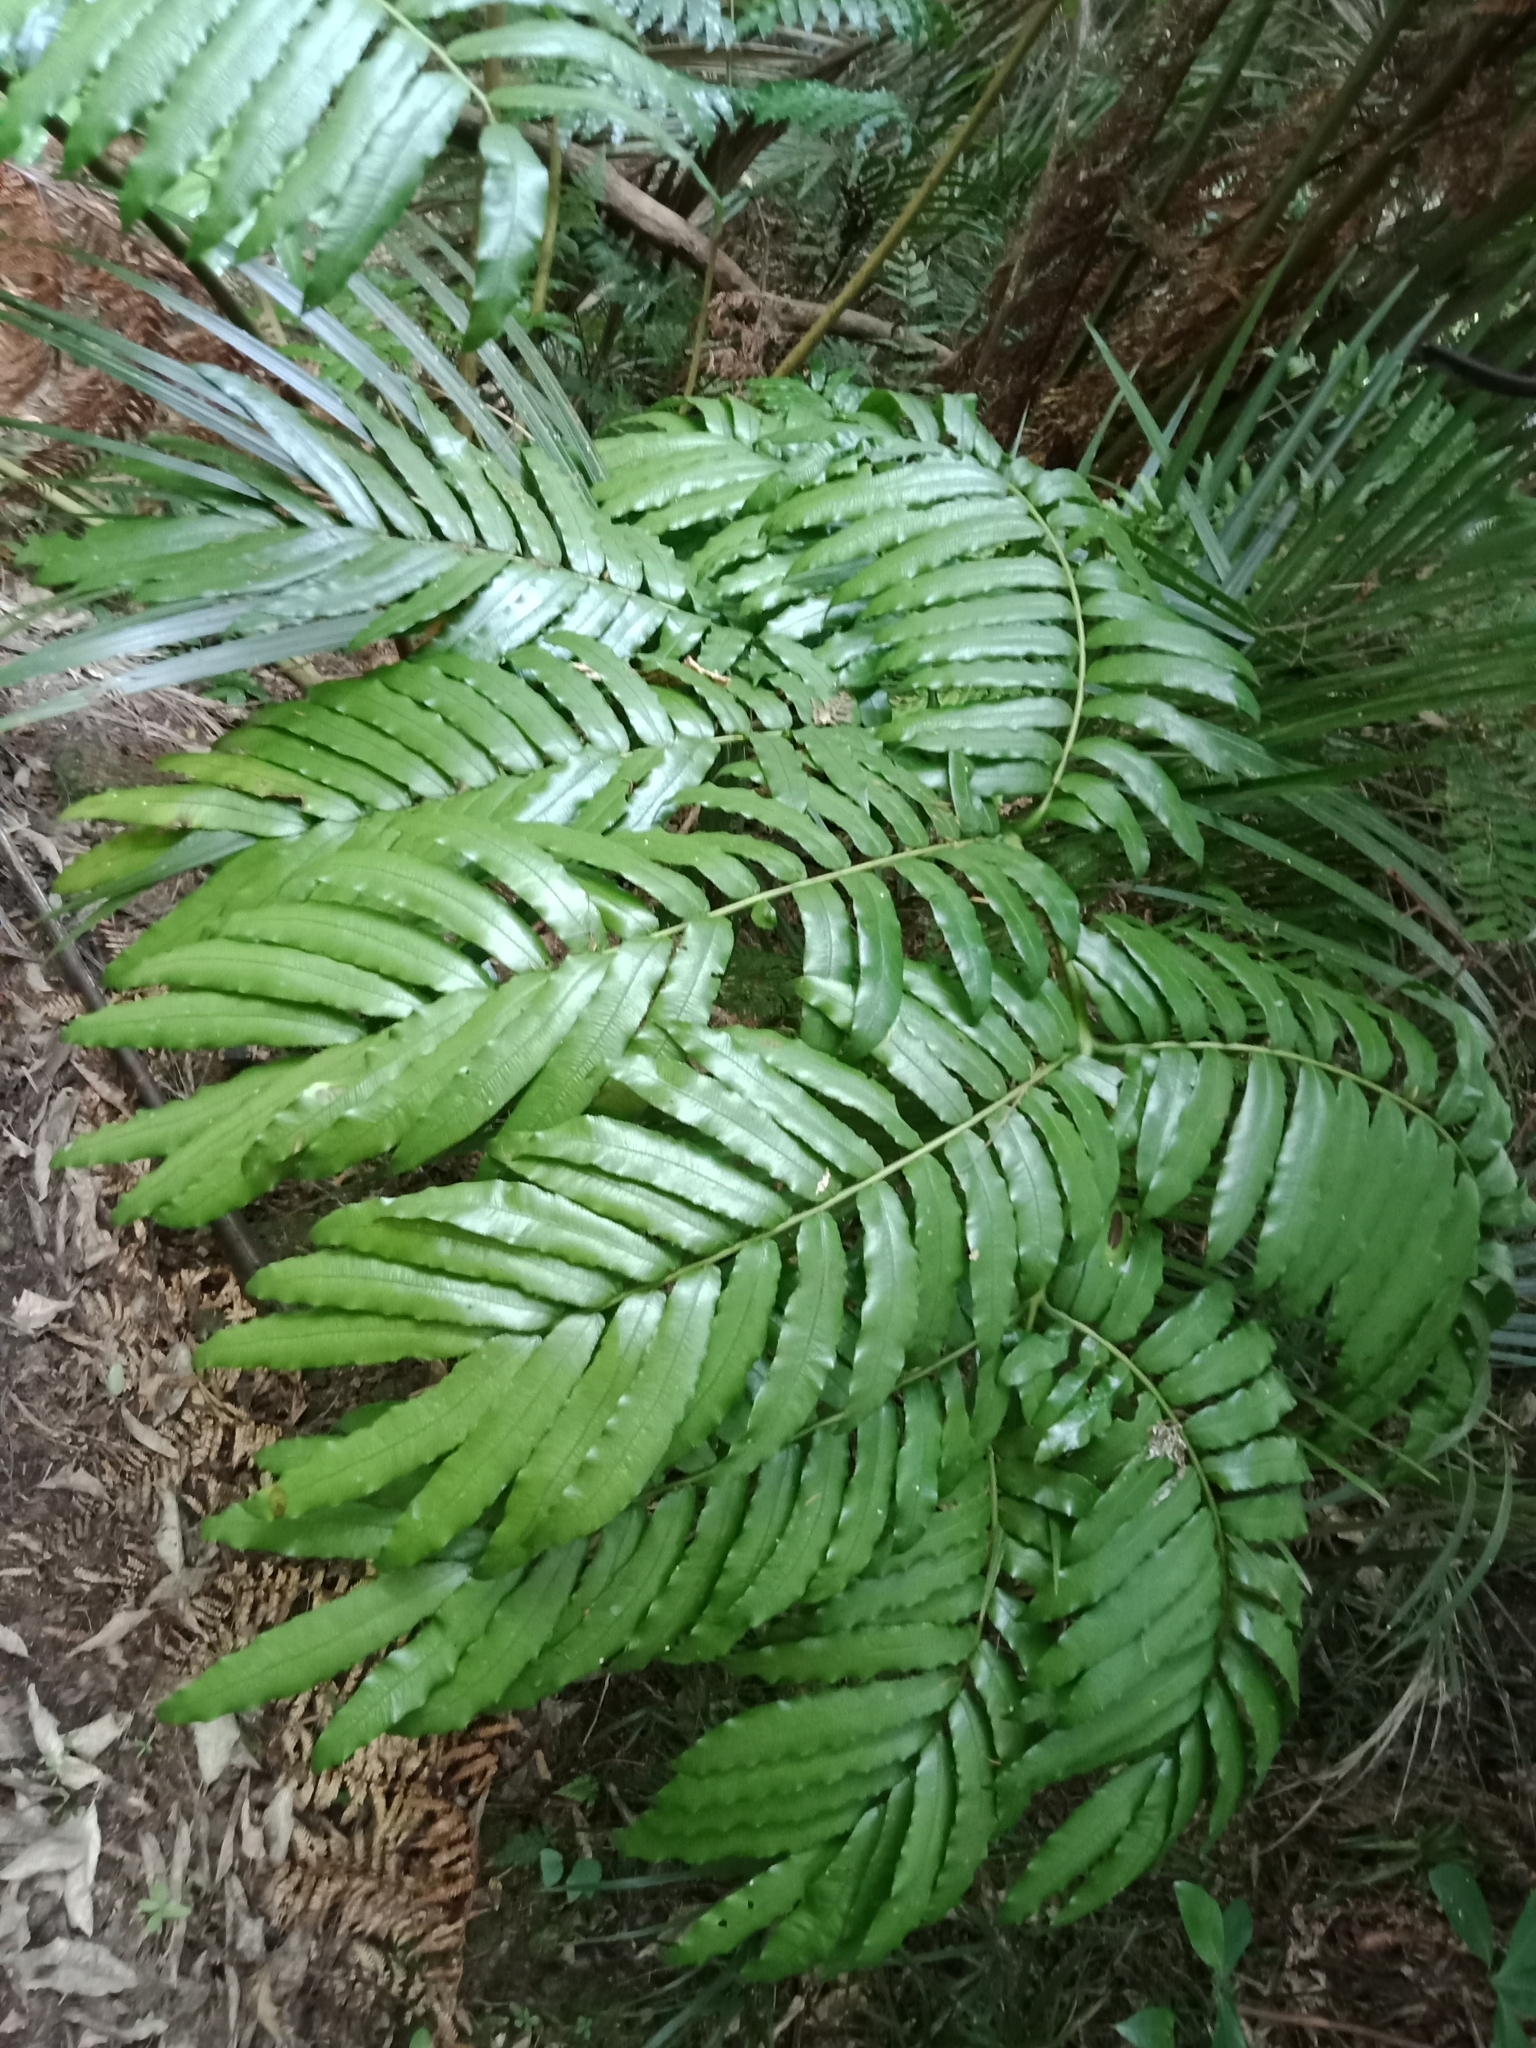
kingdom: Plantae
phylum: Tracheophyta
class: Polypodiopsida
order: Marattiales
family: Marattiaceae
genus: Ptisana
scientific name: Ptisana salicina
